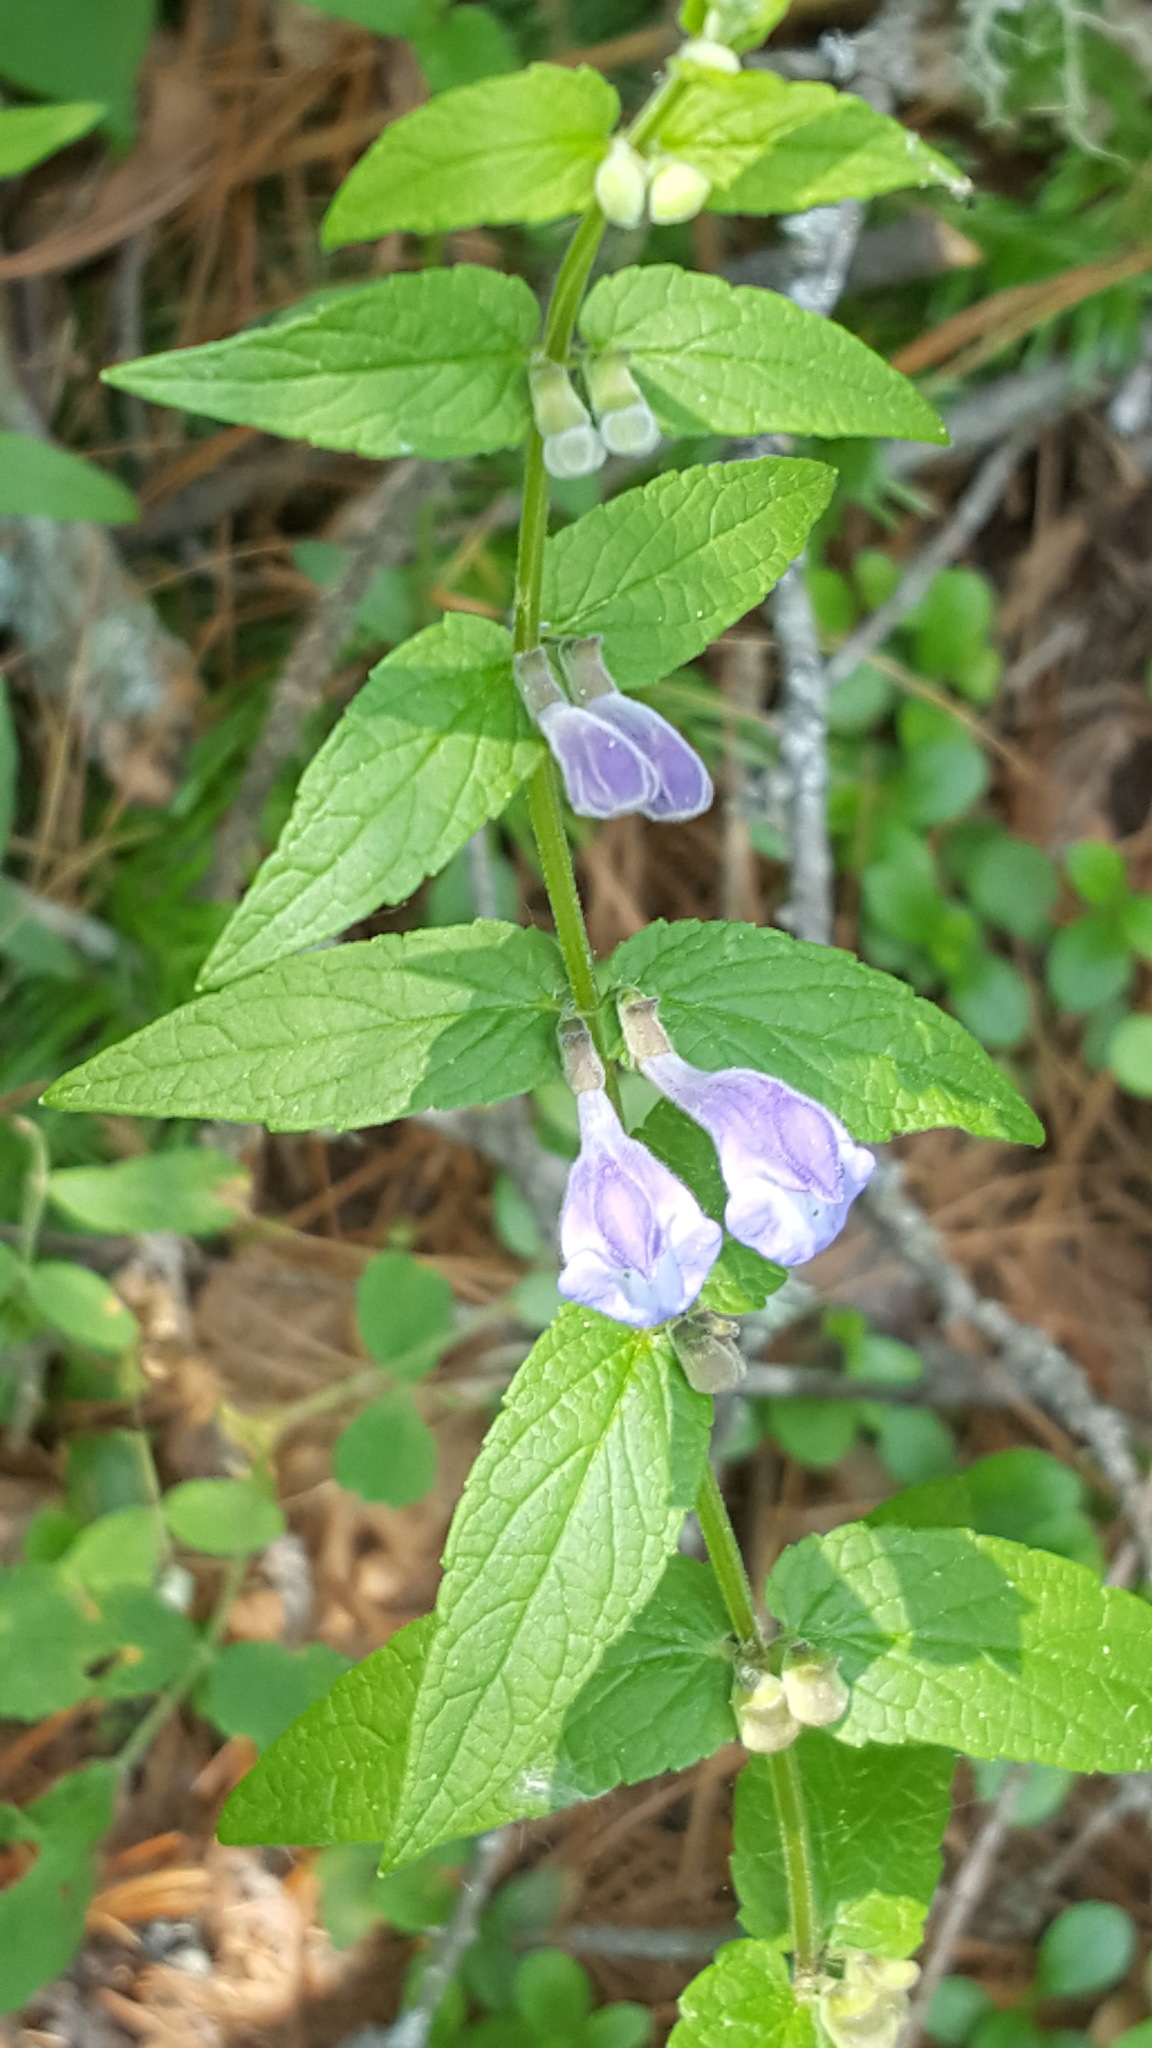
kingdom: Plantae
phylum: Tracheophyta
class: Magnoliopsida
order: Lamiales
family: Lamiaceae
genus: Scutellaria
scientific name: Scutellaria galericulata
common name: Skullcap
